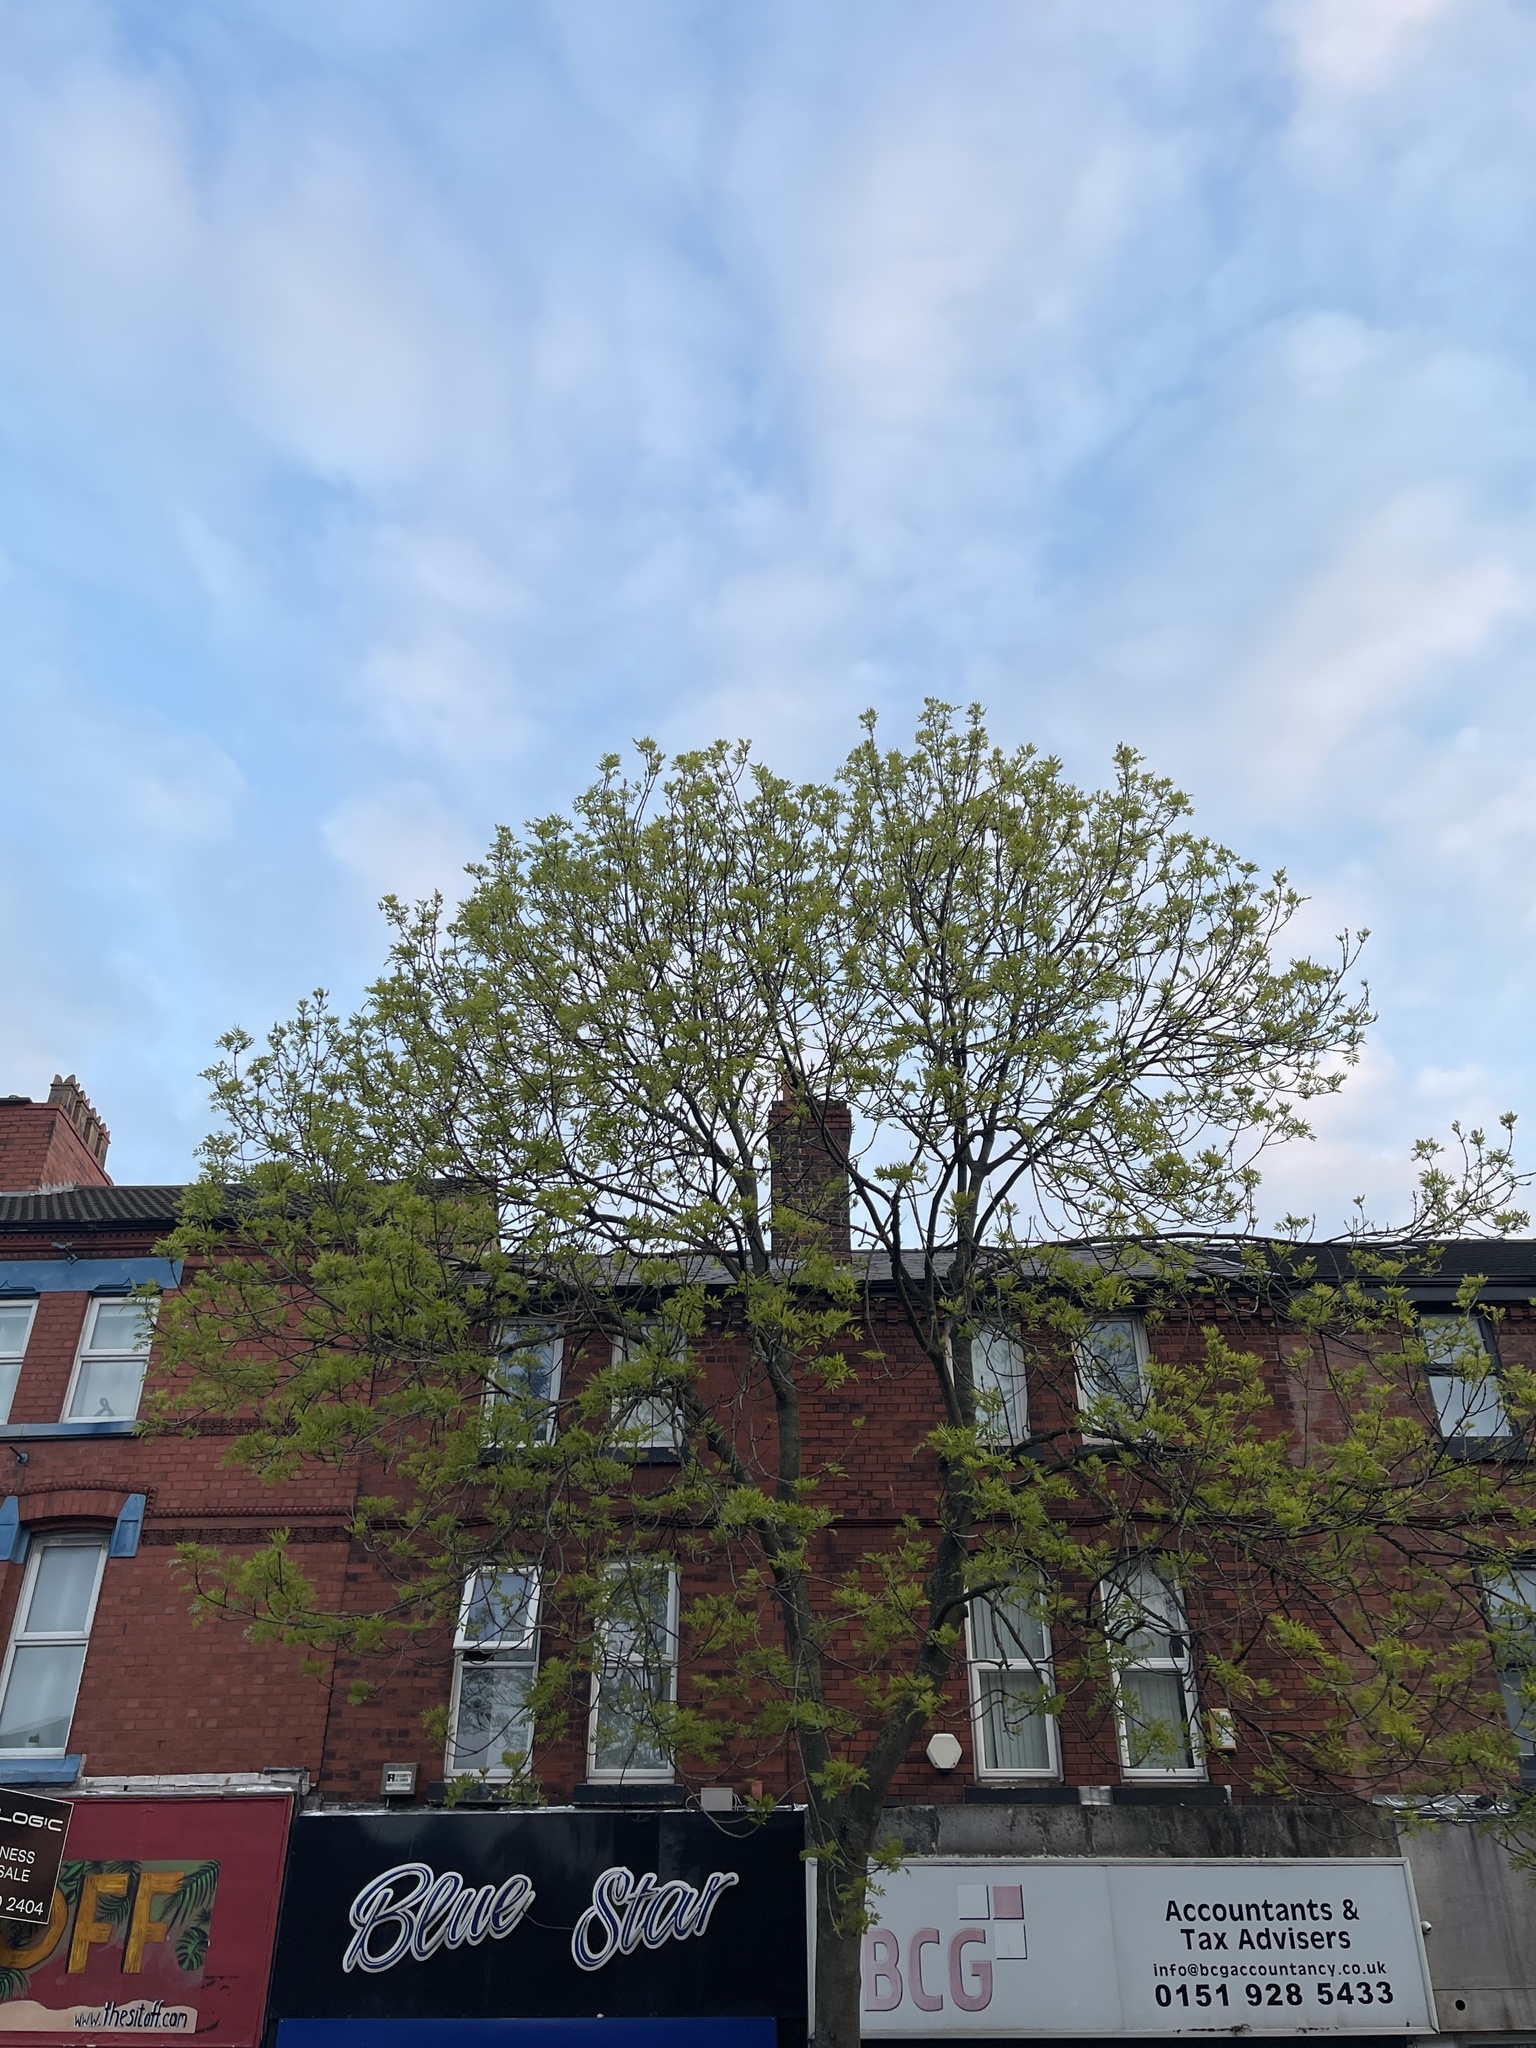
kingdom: Plantae
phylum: Tracheophyta
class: Magnoliopsida
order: Lamiales
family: Oleaceae
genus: Fraxinus
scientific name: Fraxinus excelsior
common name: European ash
